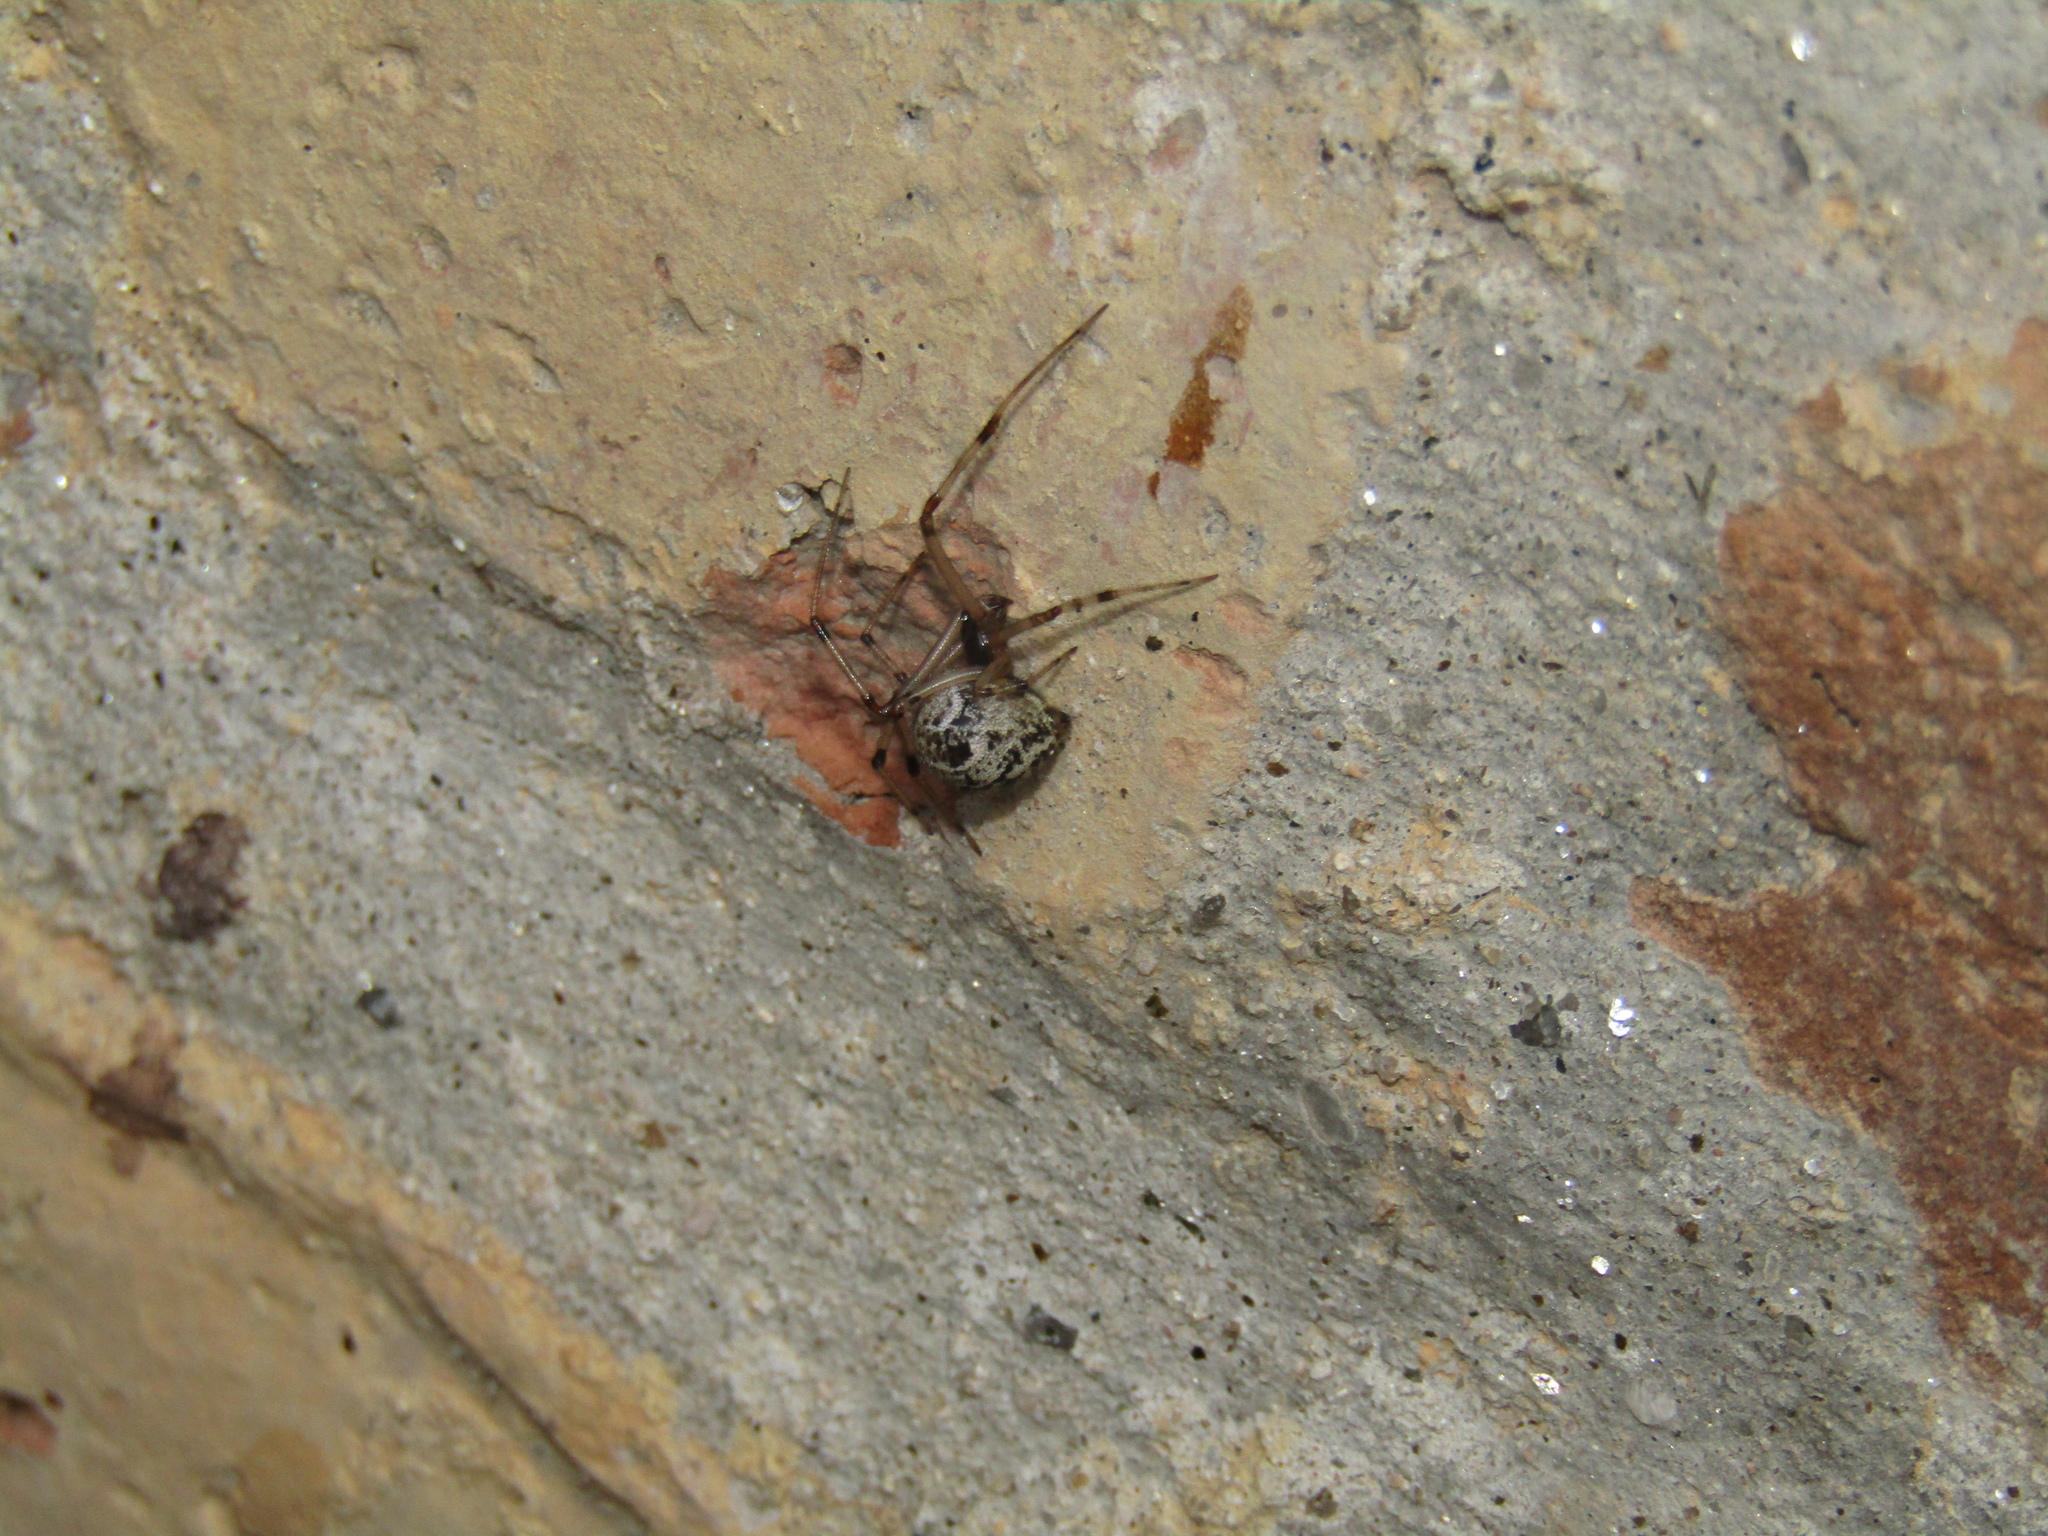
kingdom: Animalia
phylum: Arthropoda
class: Arachnida
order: Araneae
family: Theridiidae
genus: Parasteatoda
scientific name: Parasteatoda tepidariorum
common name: Common house spider
